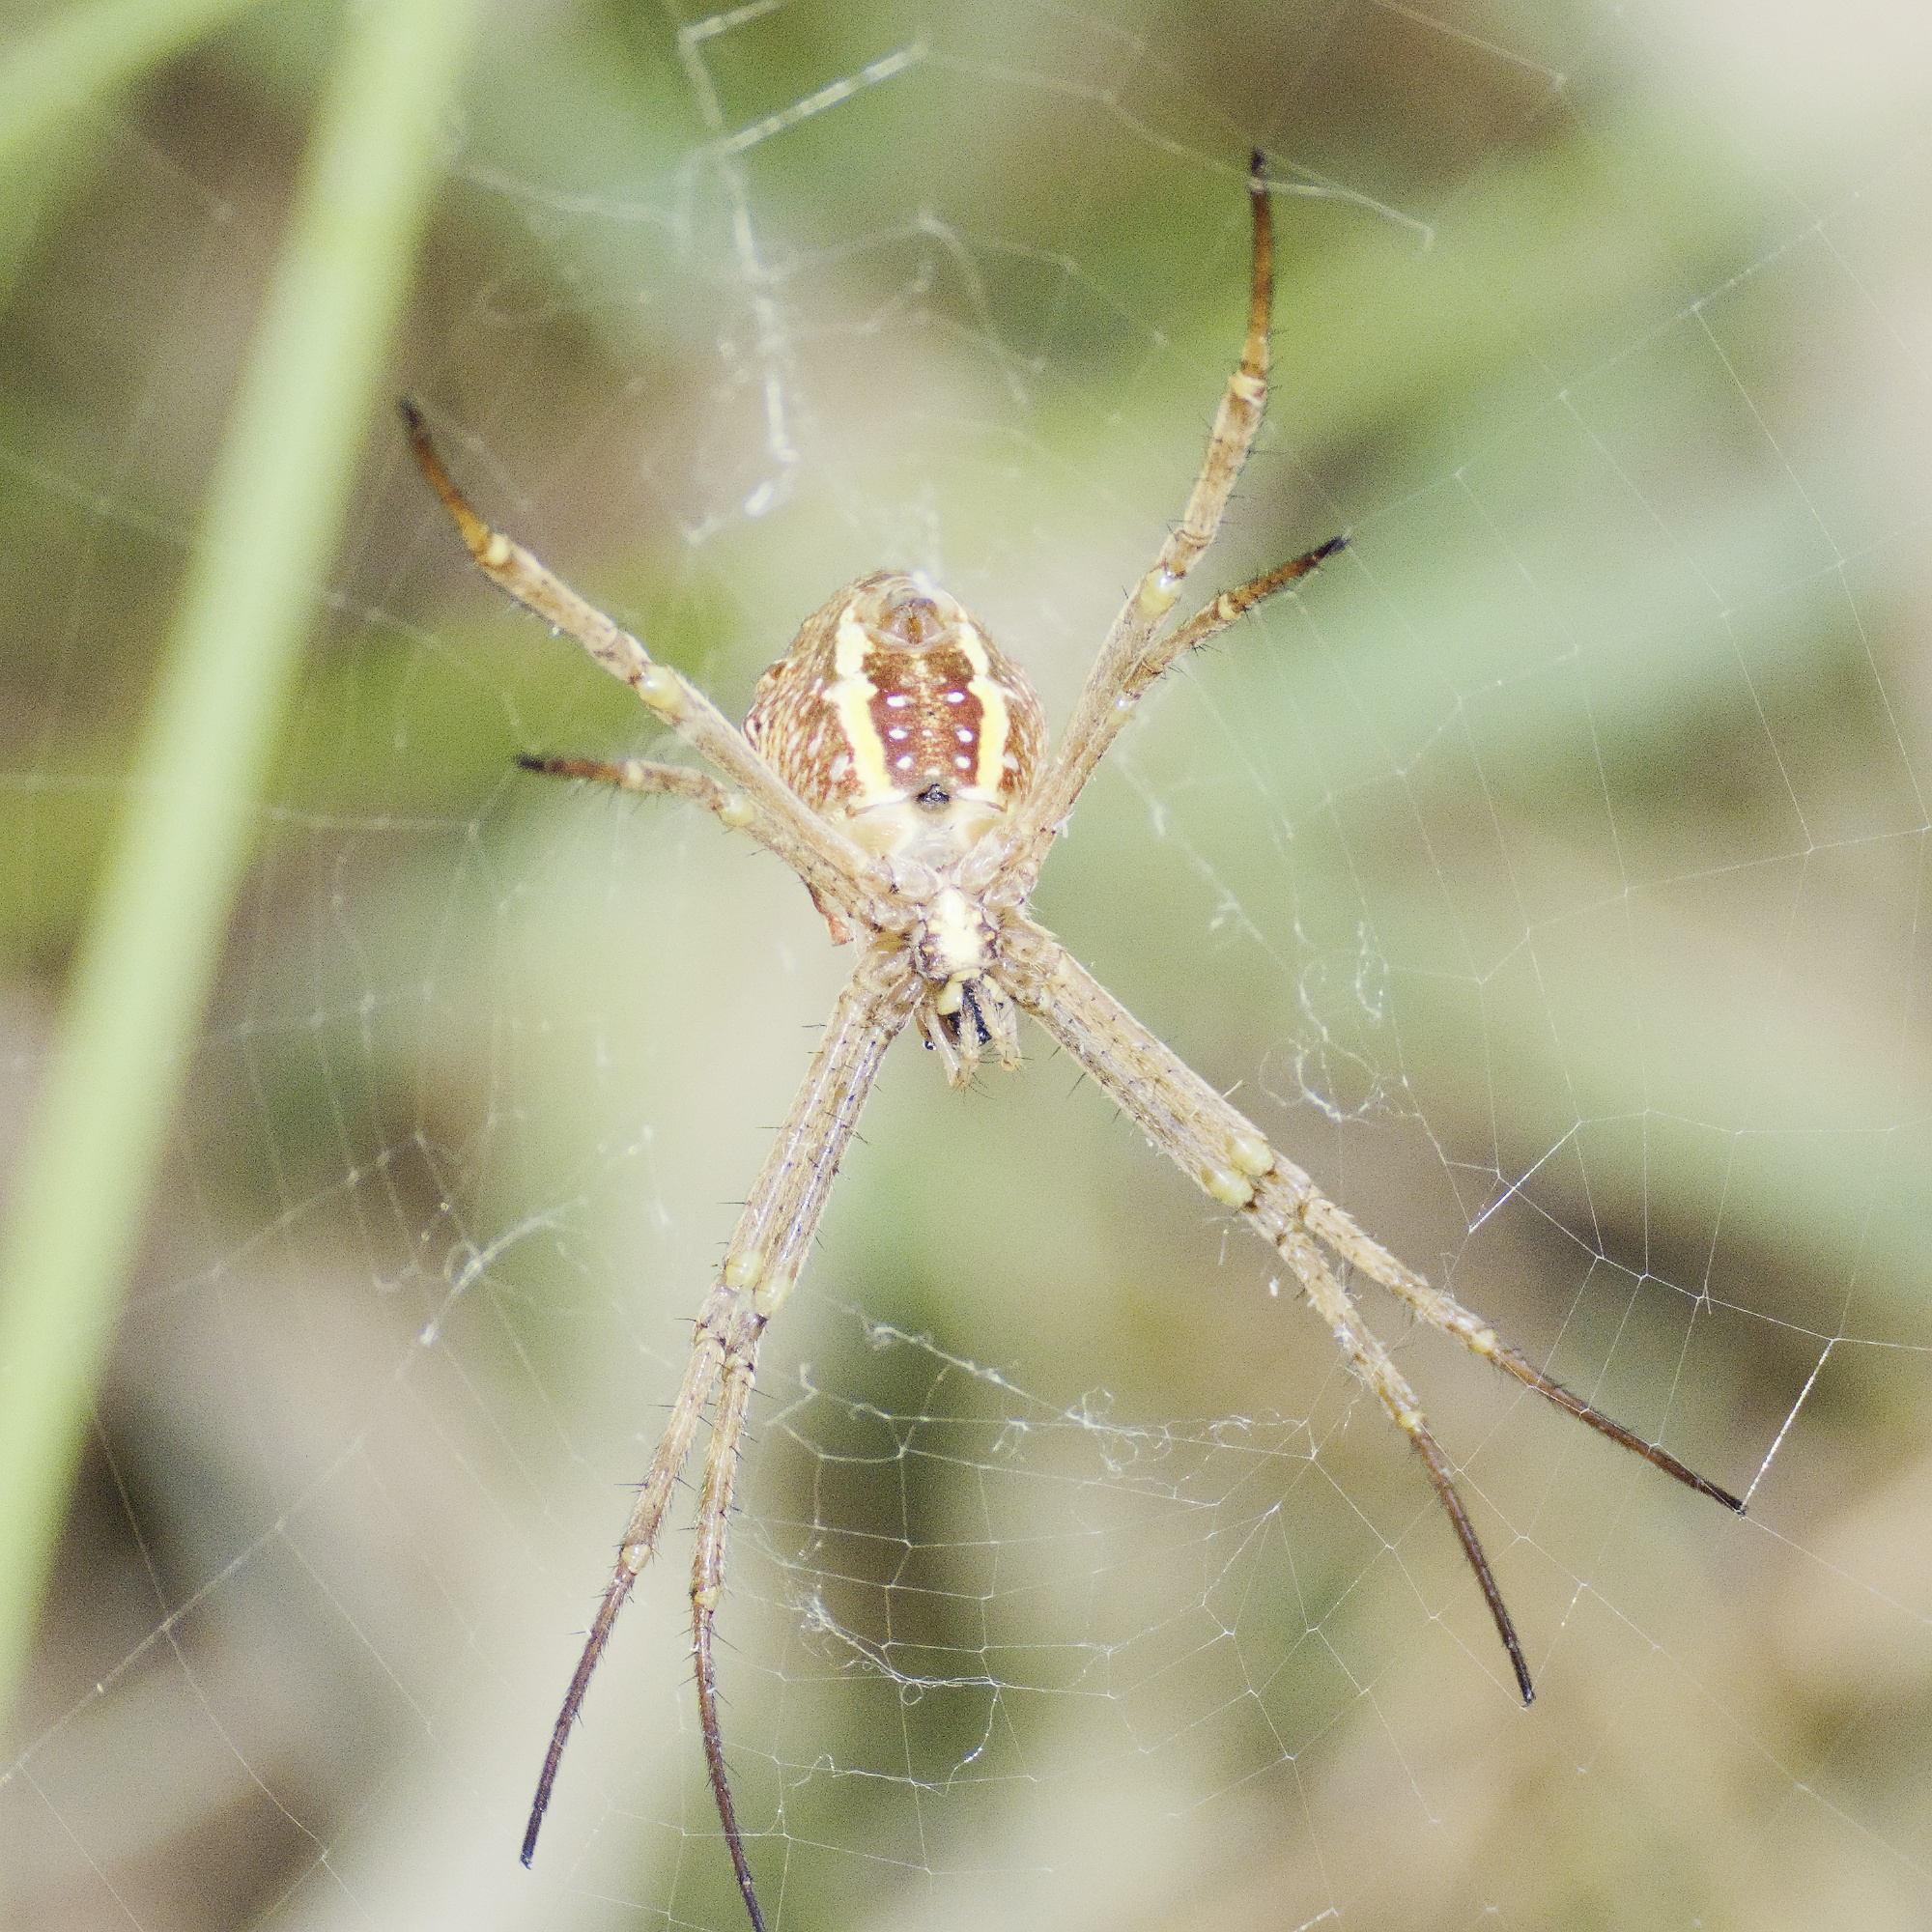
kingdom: Animalia
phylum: Arthropoda
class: Arachnida
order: Araneae
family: Araneidae
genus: Argiope
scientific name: Argiope keyserlingi
